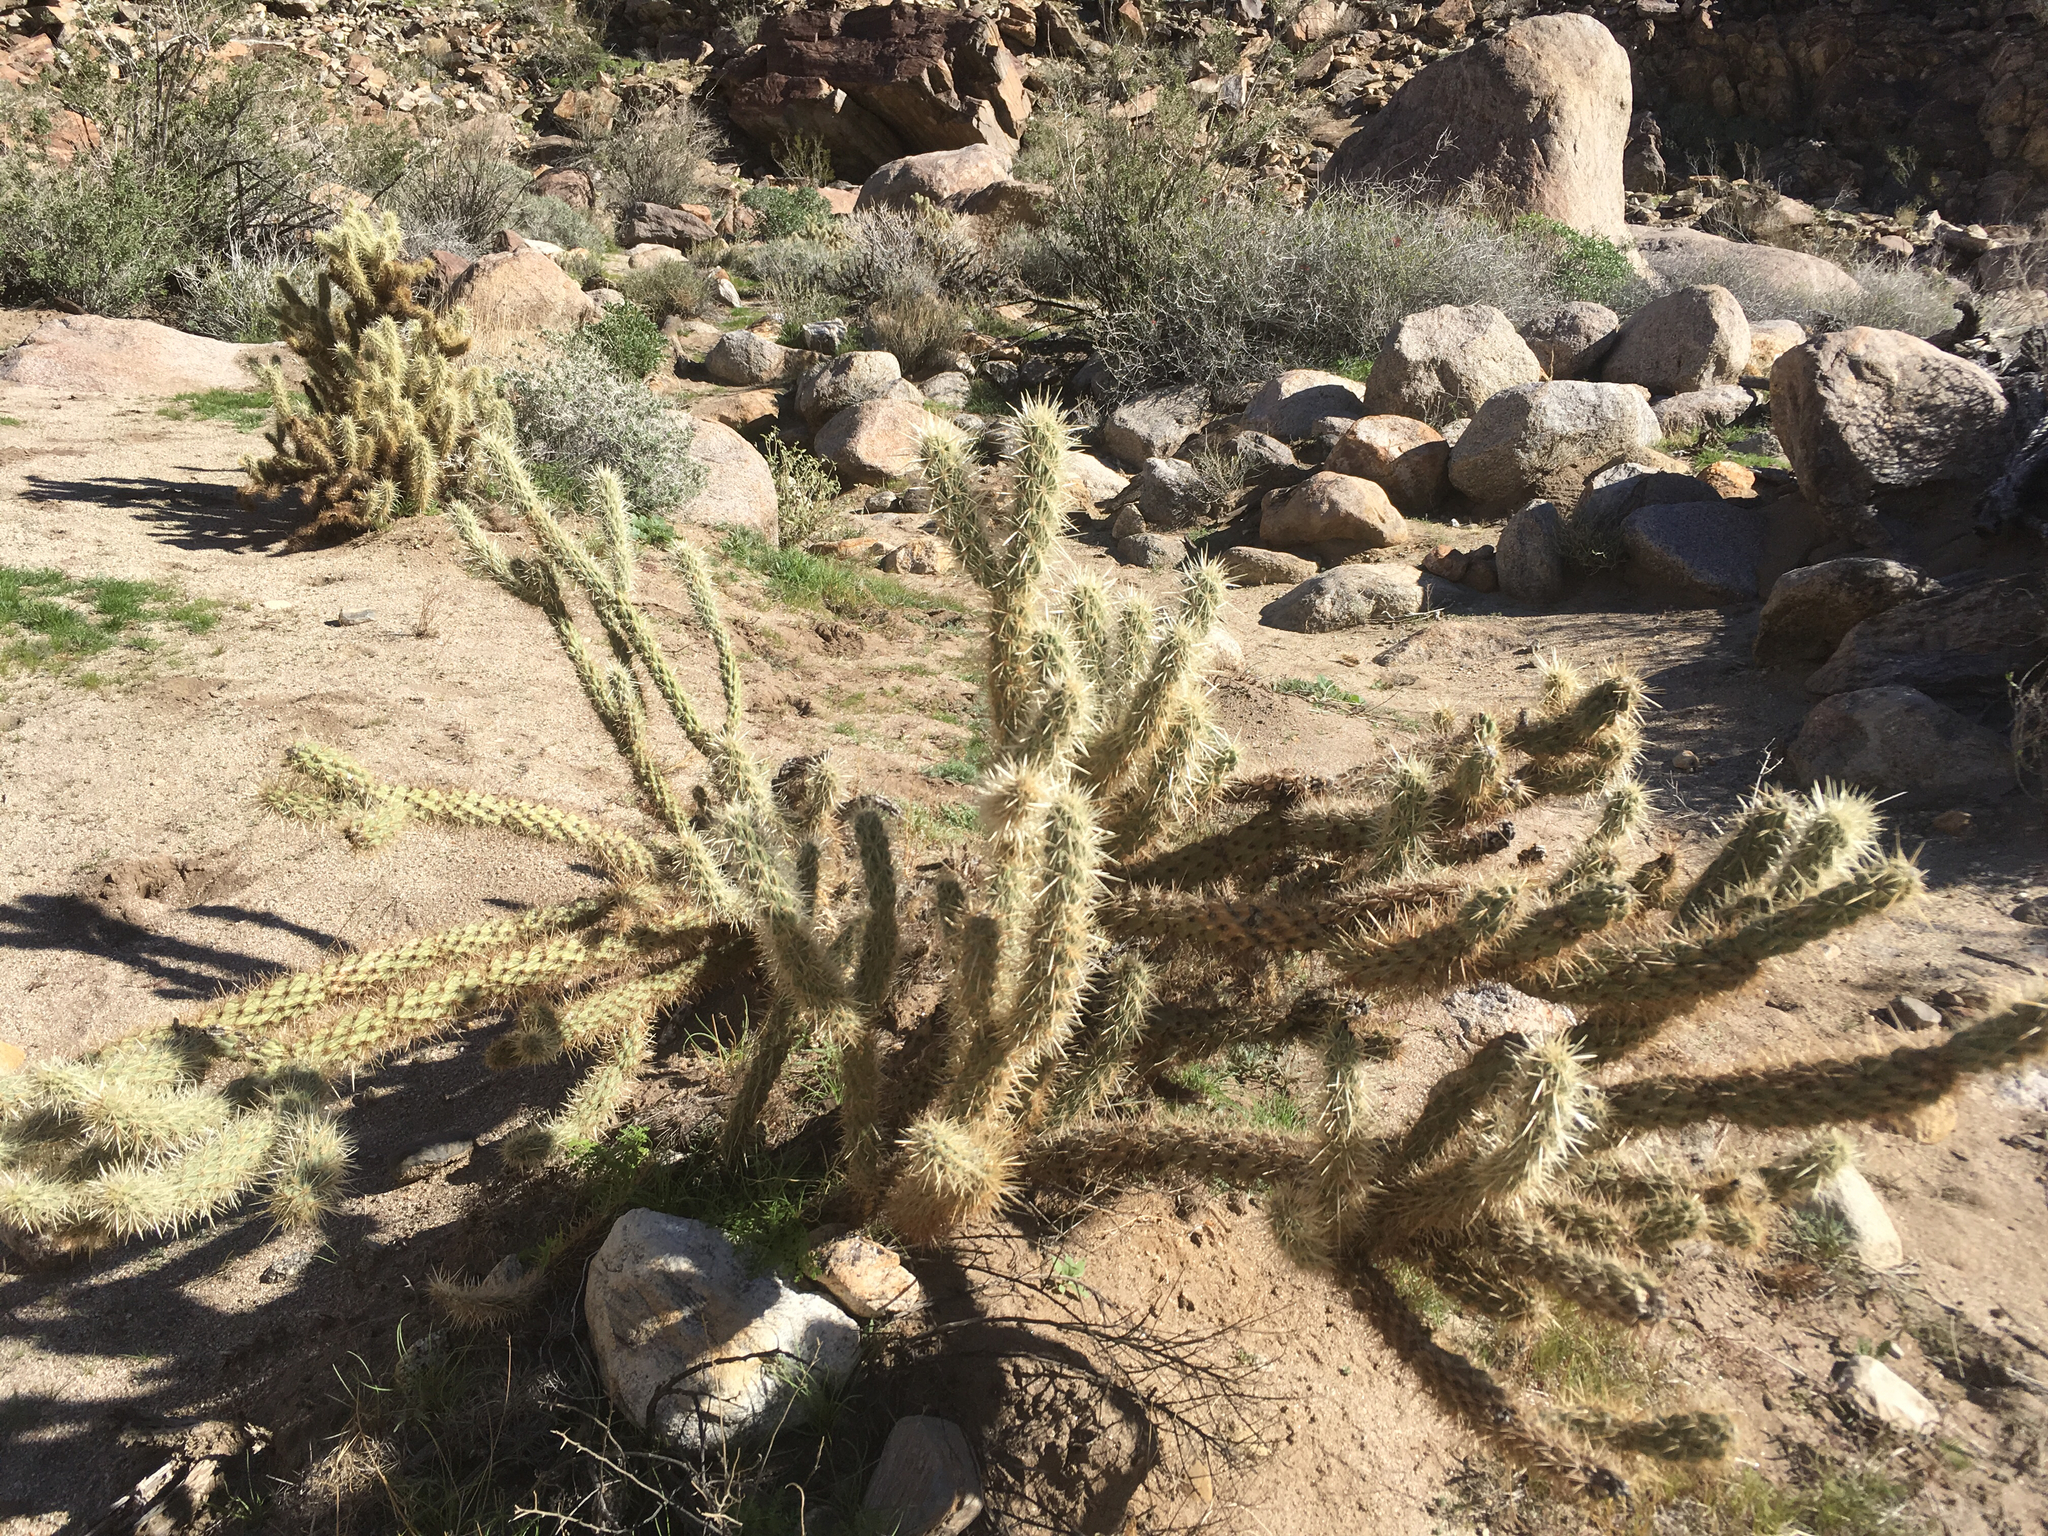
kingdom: Plantae
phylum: Tracheophyta
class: Magnoliopsida
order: Caryophyllales
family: Cactaceae
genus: Cylindropuntia
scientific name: Cylindropuntia ganderi
